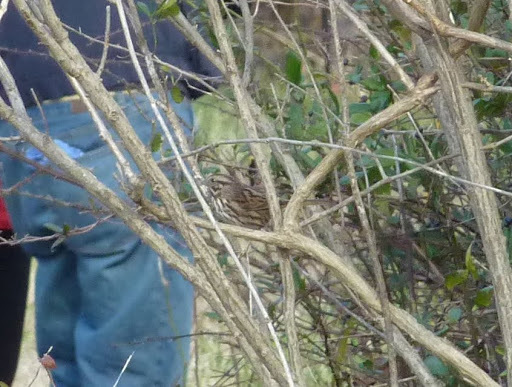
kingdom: Animalia
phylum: Chordata
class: Aves
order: Passeriformes
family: Passerellidae
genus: Melospiza
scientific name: Melospiza melodia
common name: Song sparrow
